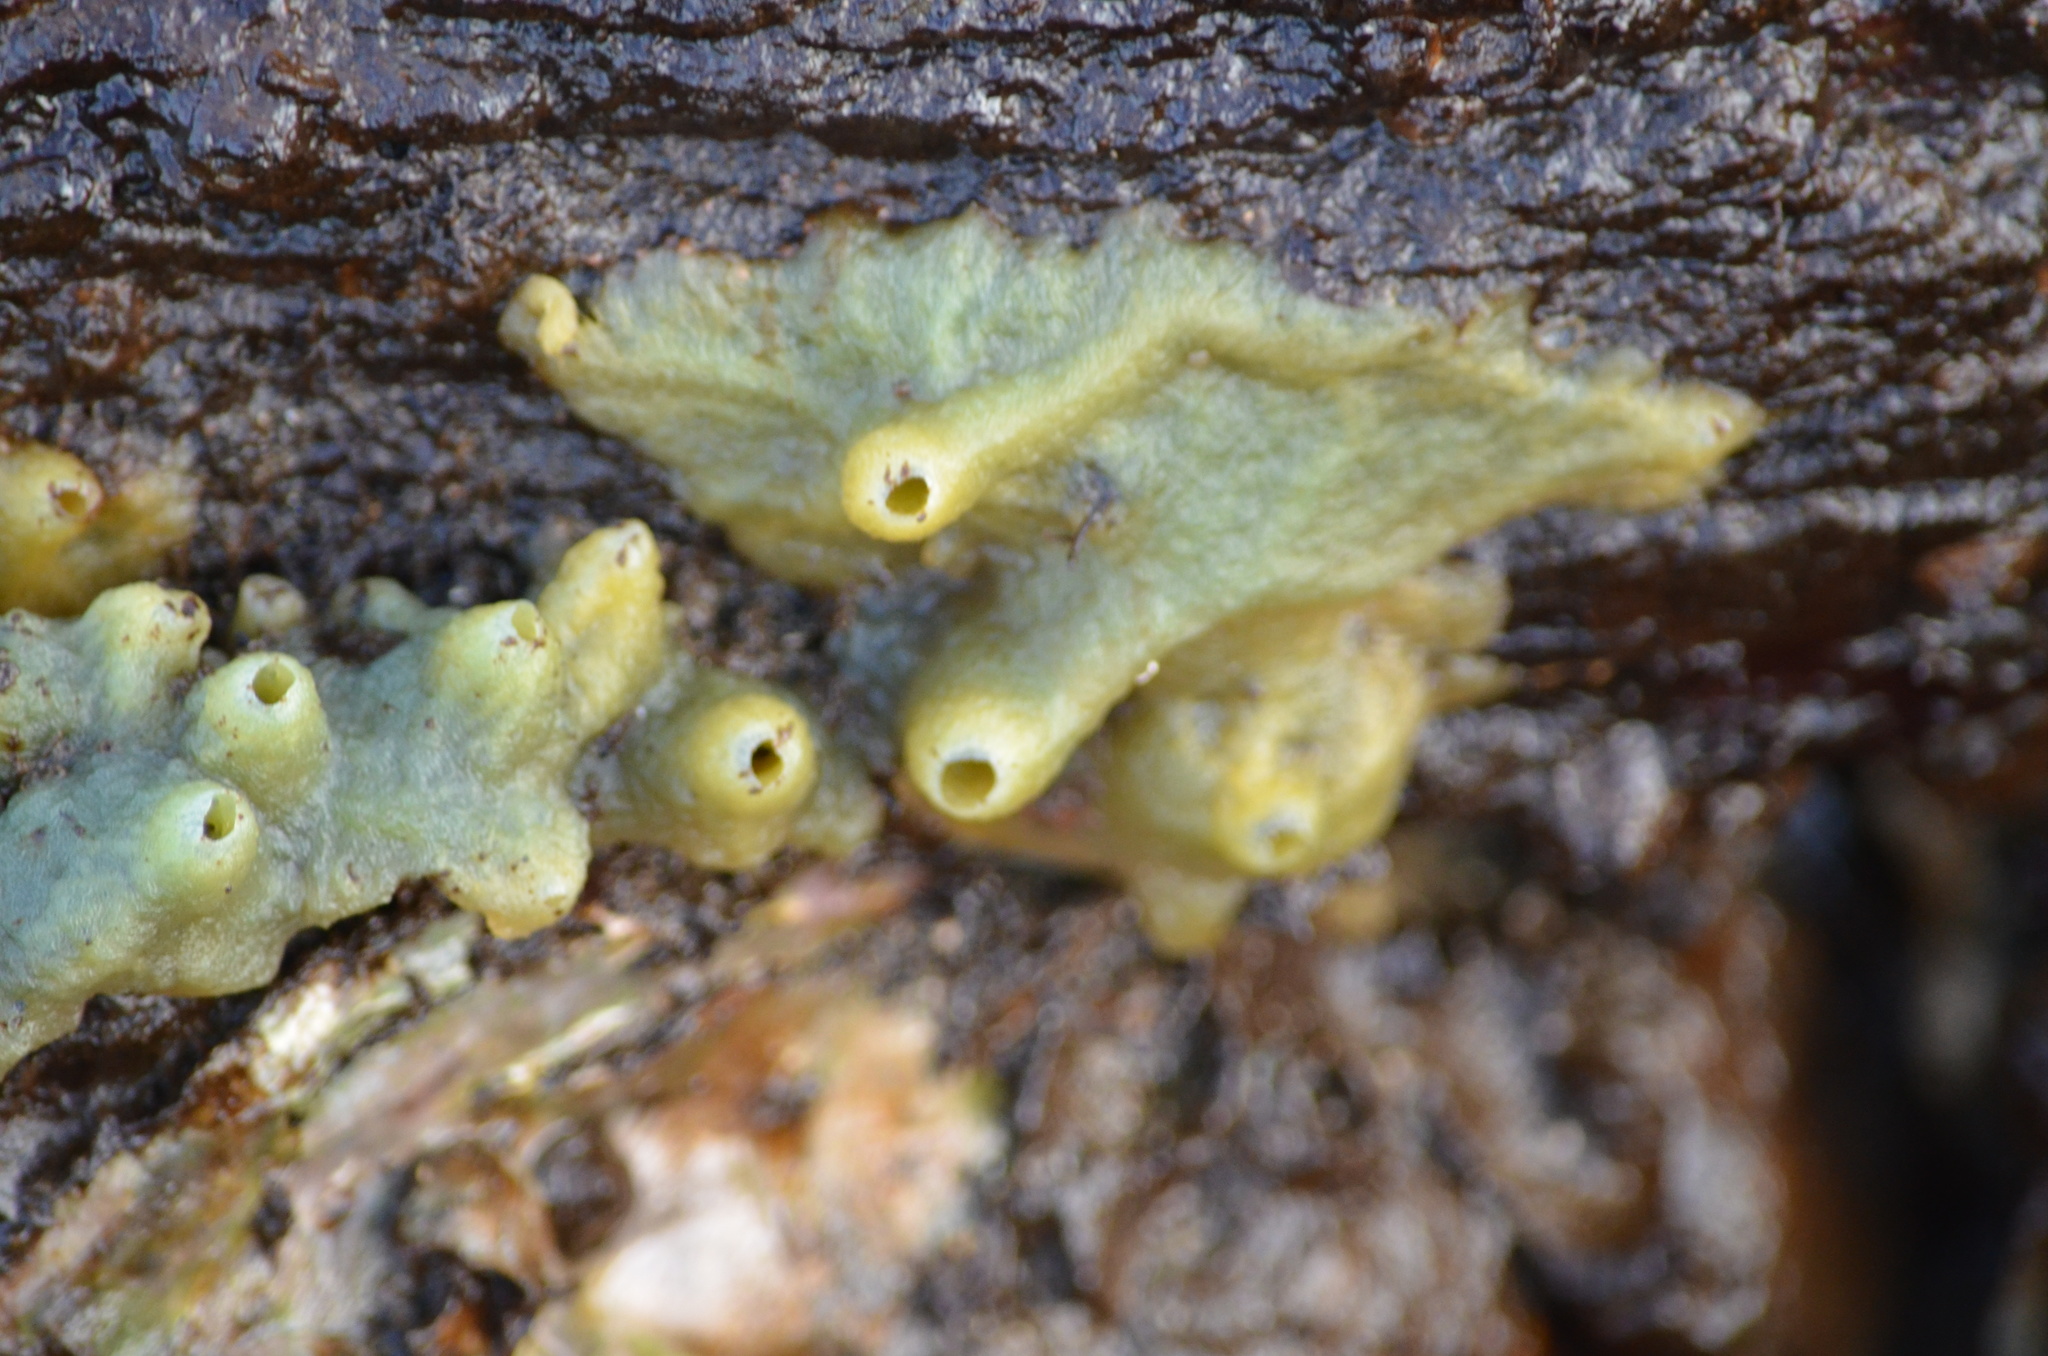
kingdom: Animalia
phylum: Porifera
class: Demospongiae
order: Suberitida
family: Halichondriidae
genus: Halichondria
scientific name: Halichondria panicea
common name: Breadcrumb sponge
